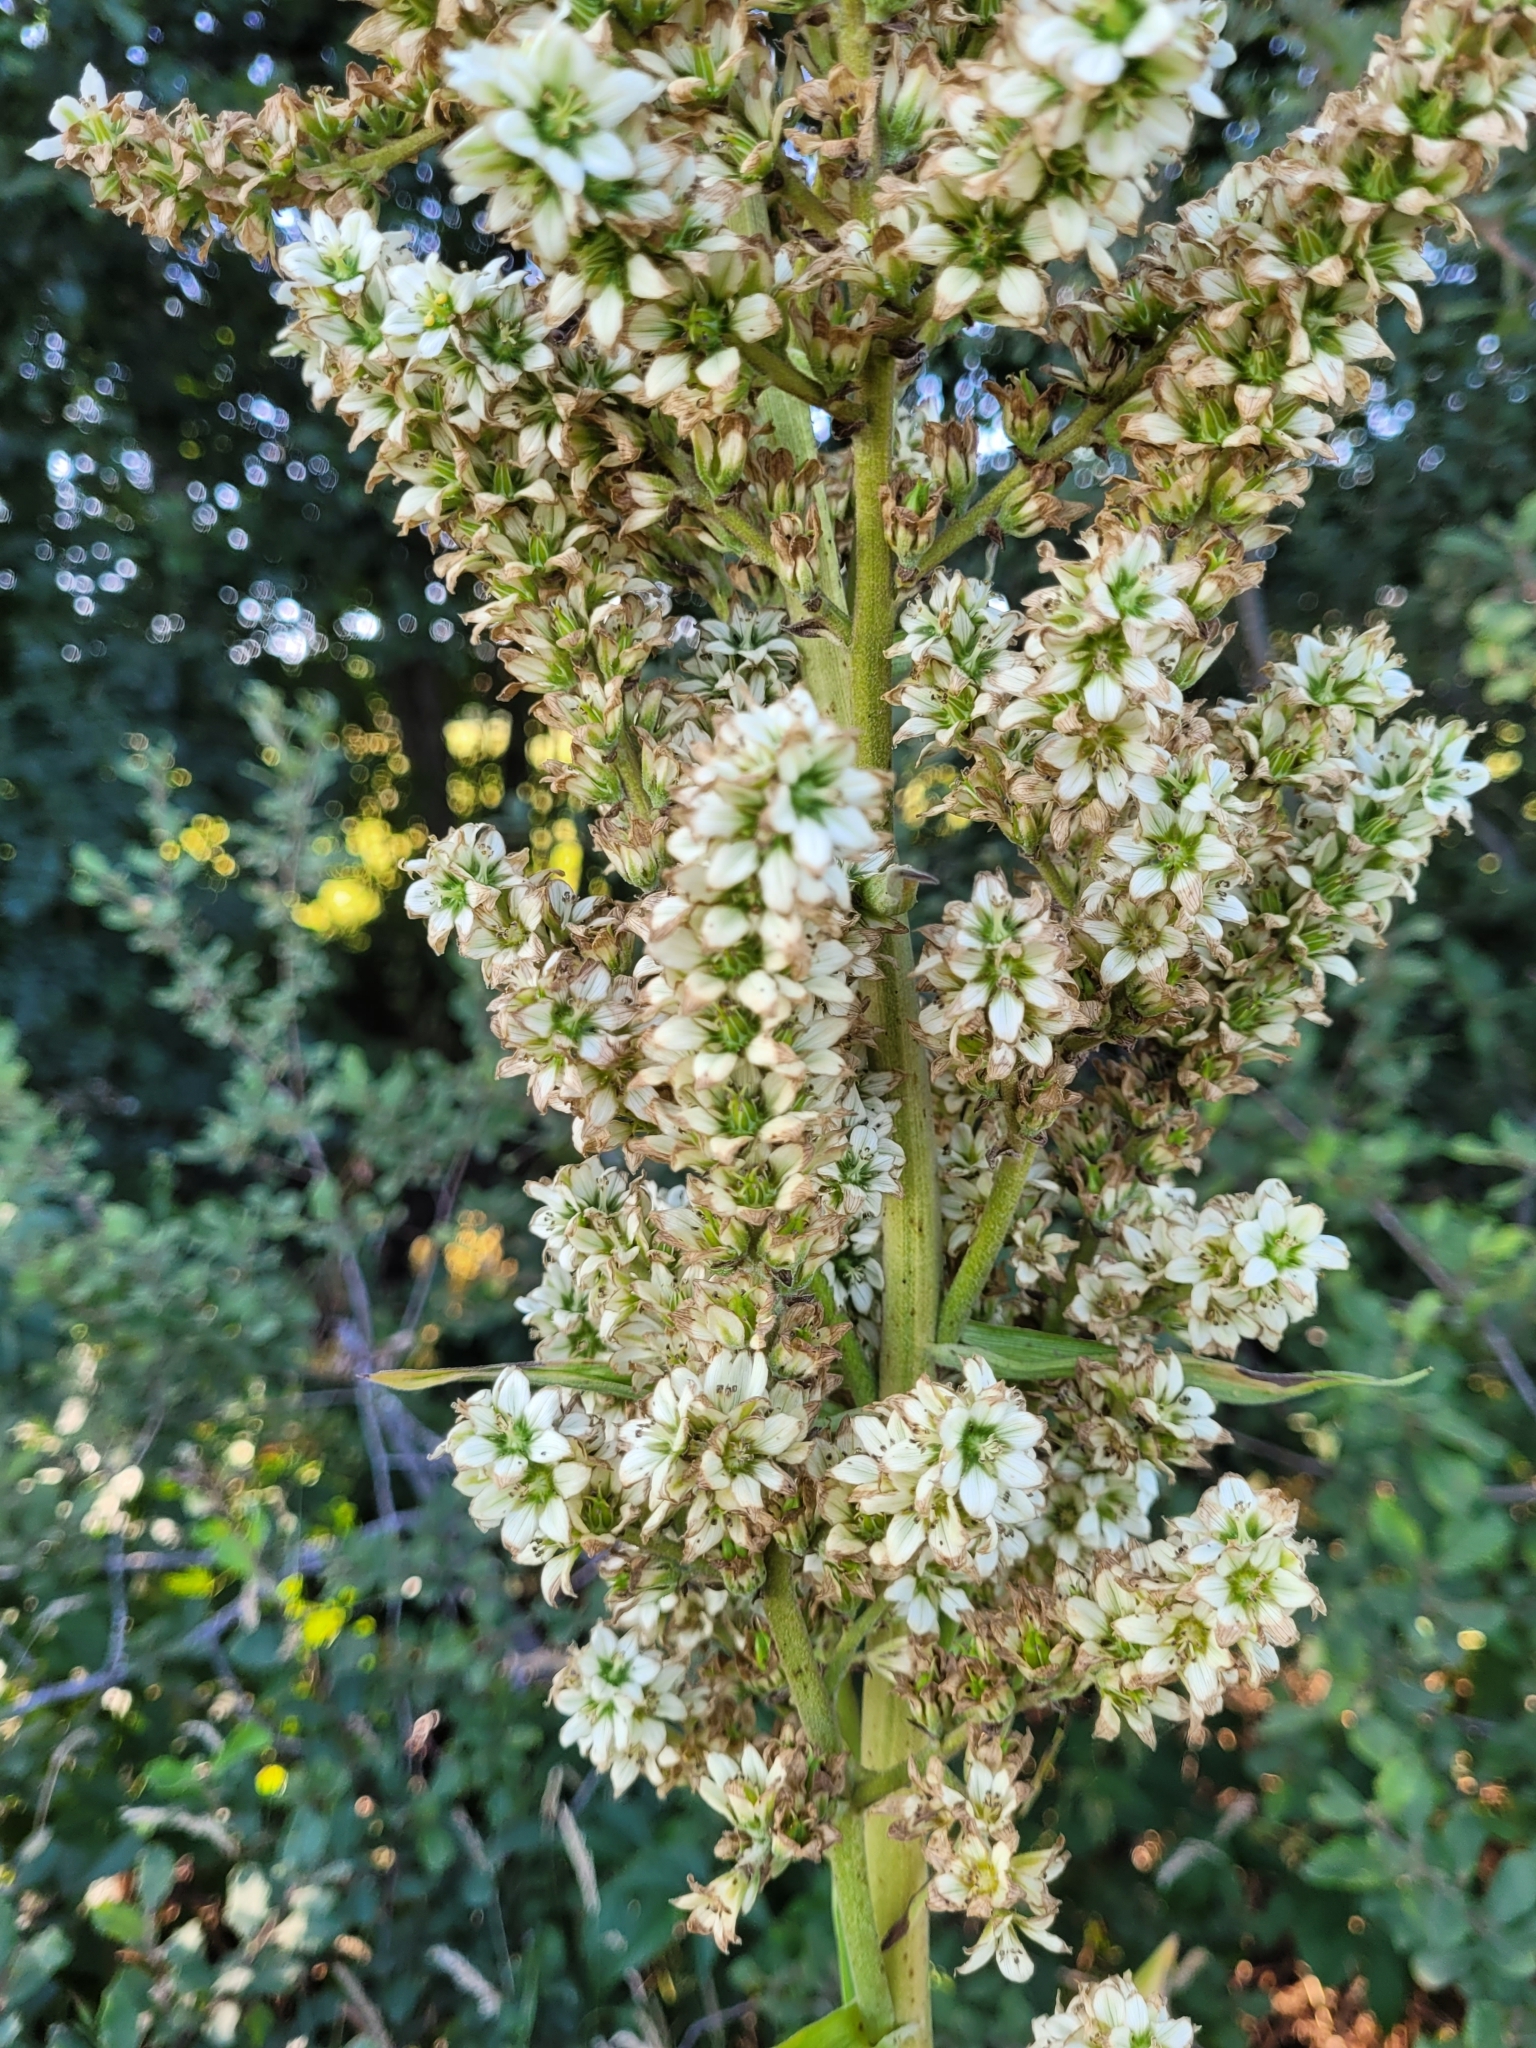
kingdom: Plantae
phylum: Tracheophyta
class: Liliopsida
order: Liliales
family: Melanthiaceae
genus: Veratrum
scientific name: Veratrum album
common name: White veratrum
